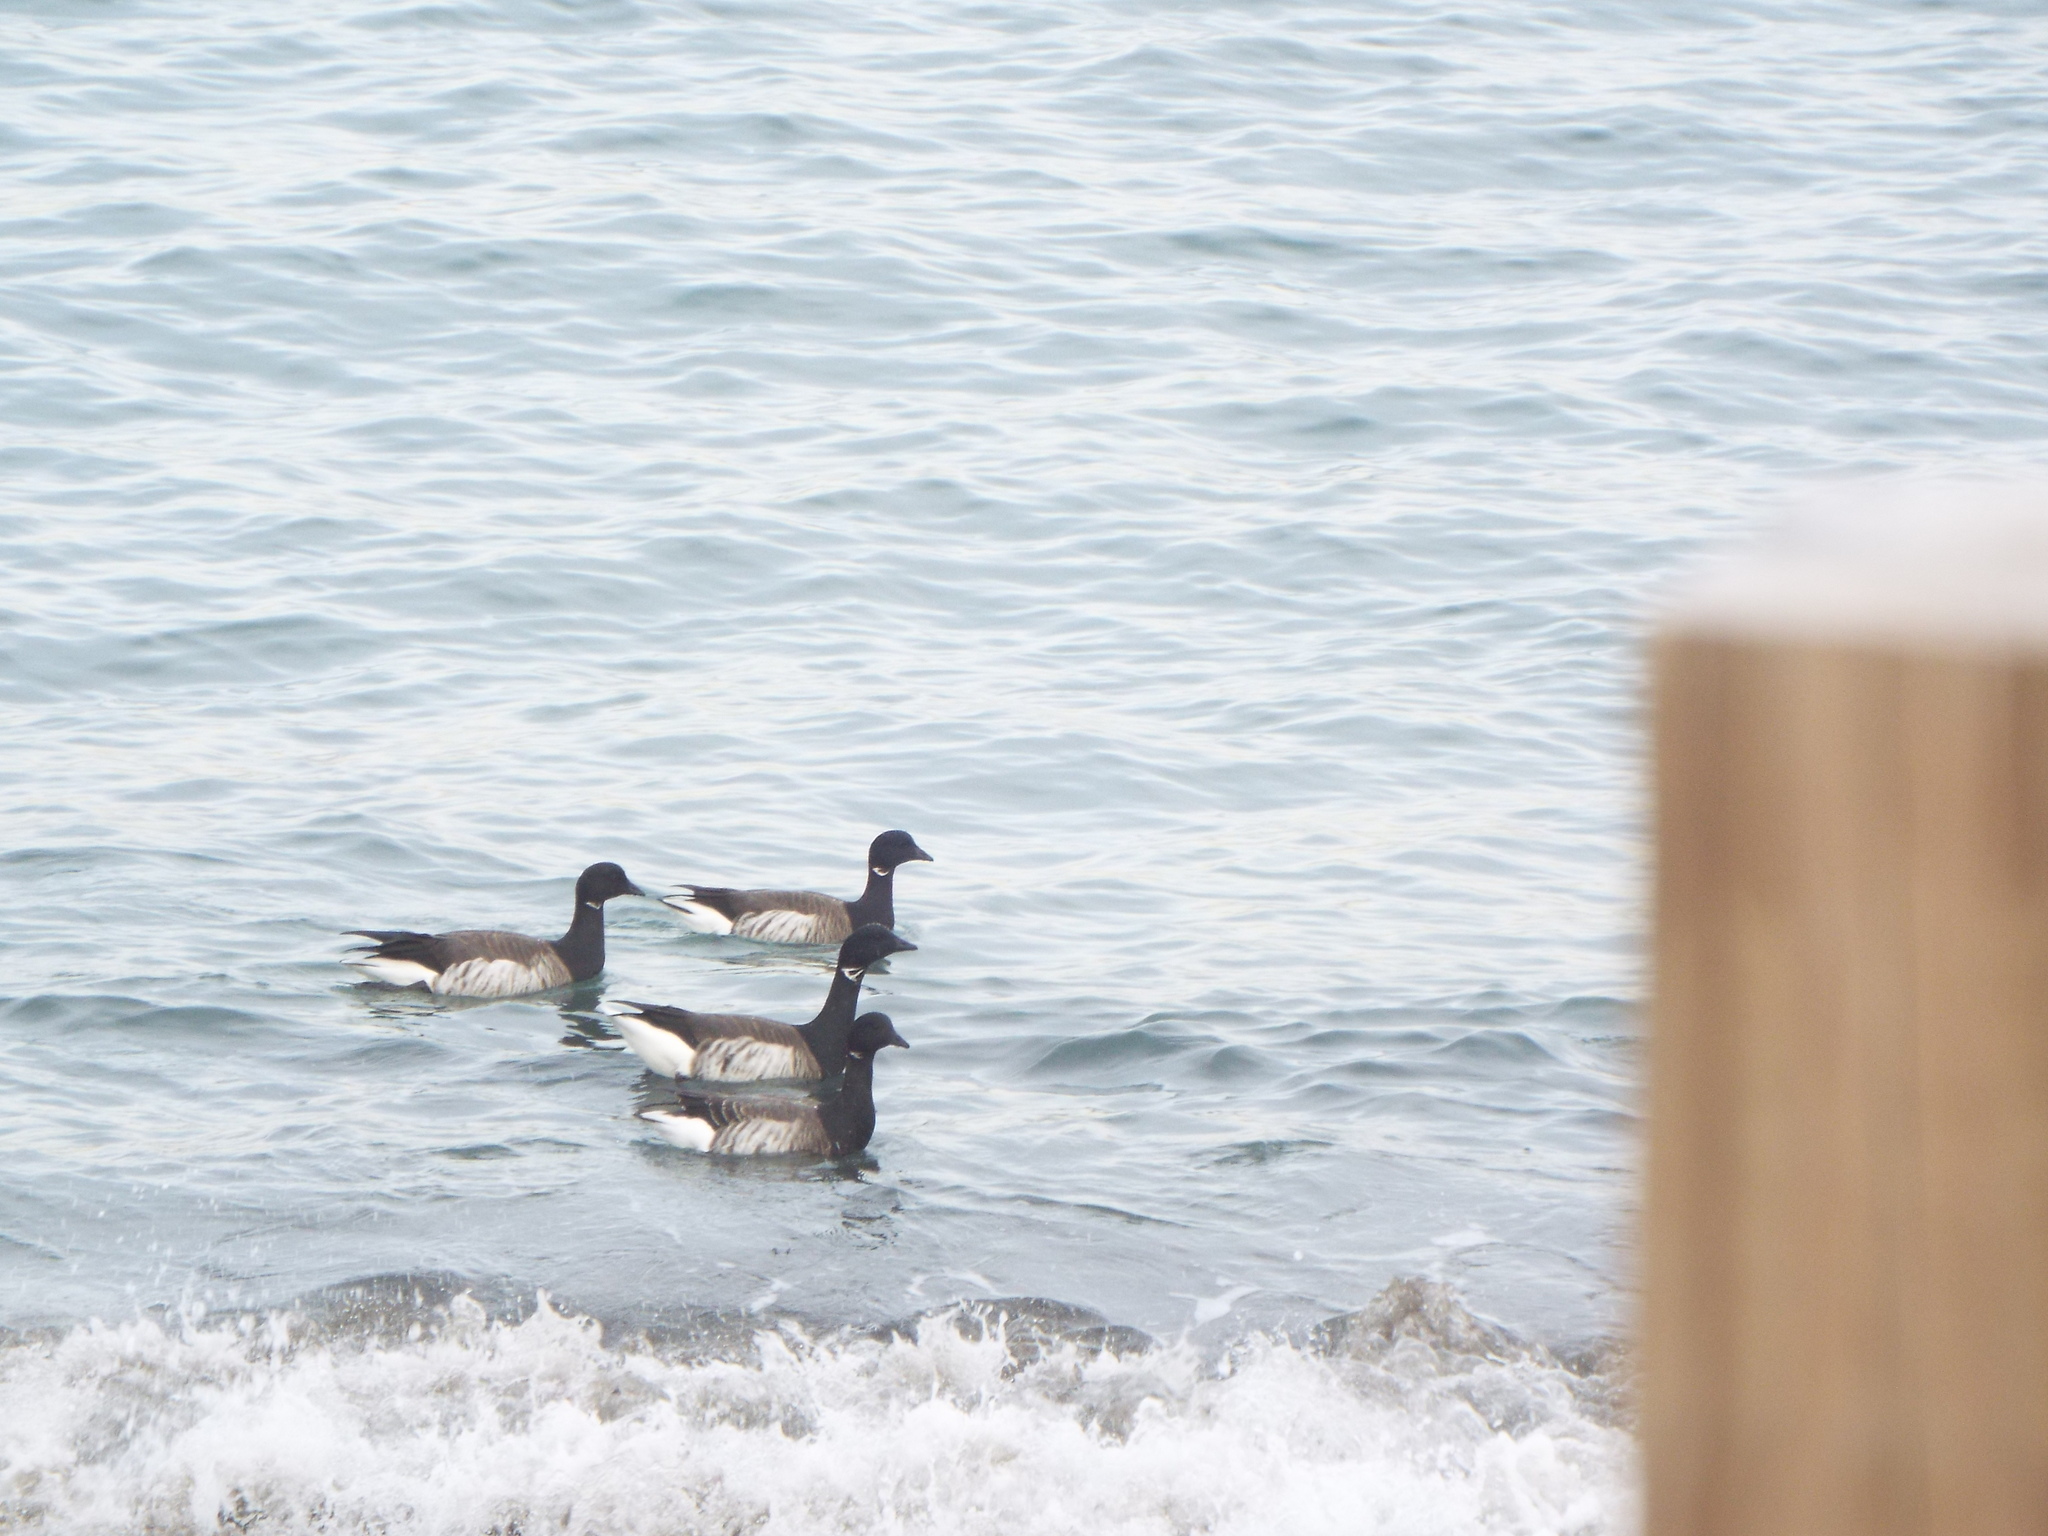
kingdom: Animalia
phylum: Chordata
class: Aves
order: Anseriformes
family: Anatidae
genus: Branta
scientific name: Branta bernicla
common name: Brant goose
